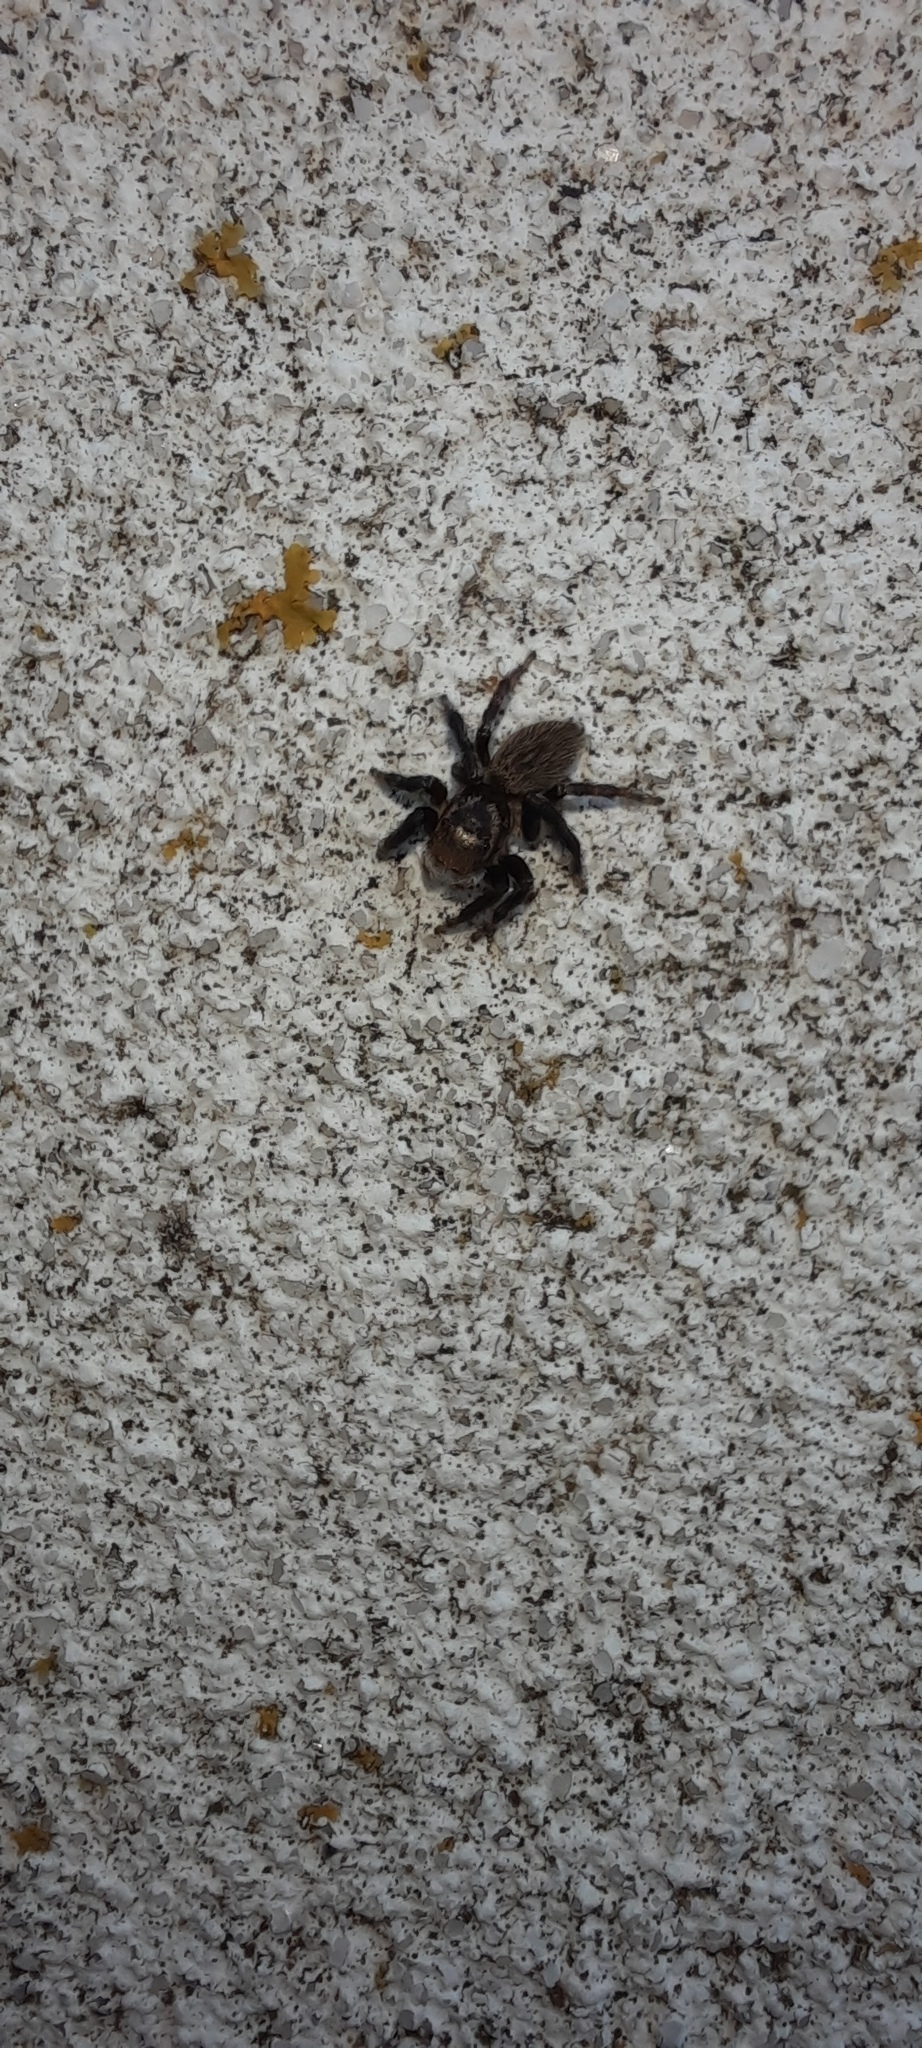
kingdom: Animalia
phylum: Arthropoda
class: Arachnida
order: Araneae
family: Salticidae
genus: Maratus
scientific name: Maratus griseus
